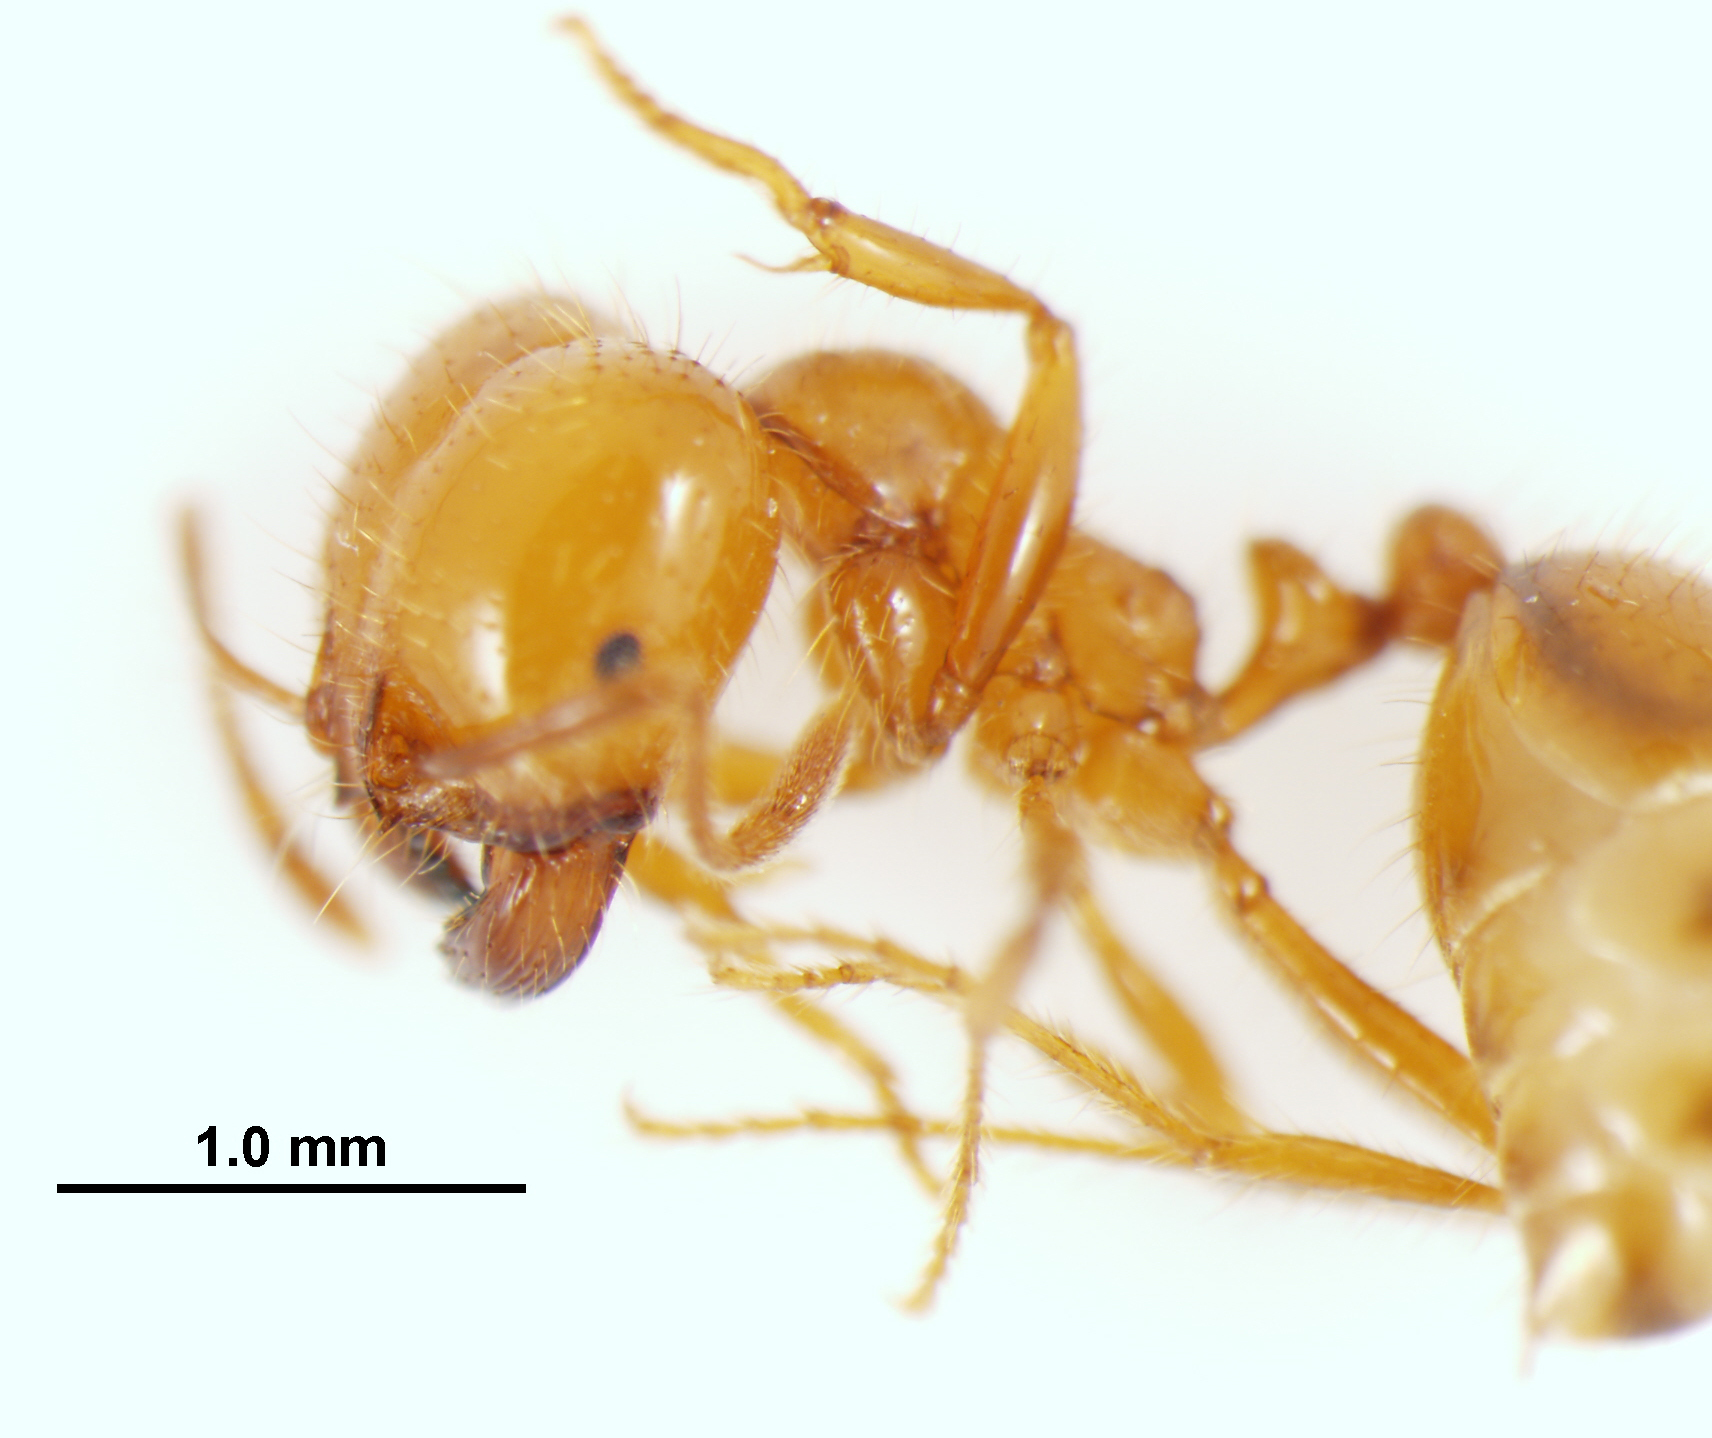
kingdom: Animalia
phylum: Arthropoda
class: Insecta
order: Hymenoptera
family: Formicidae
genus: Solenopsis
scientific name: Solenopsis geminata
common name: Tropical fire ant
